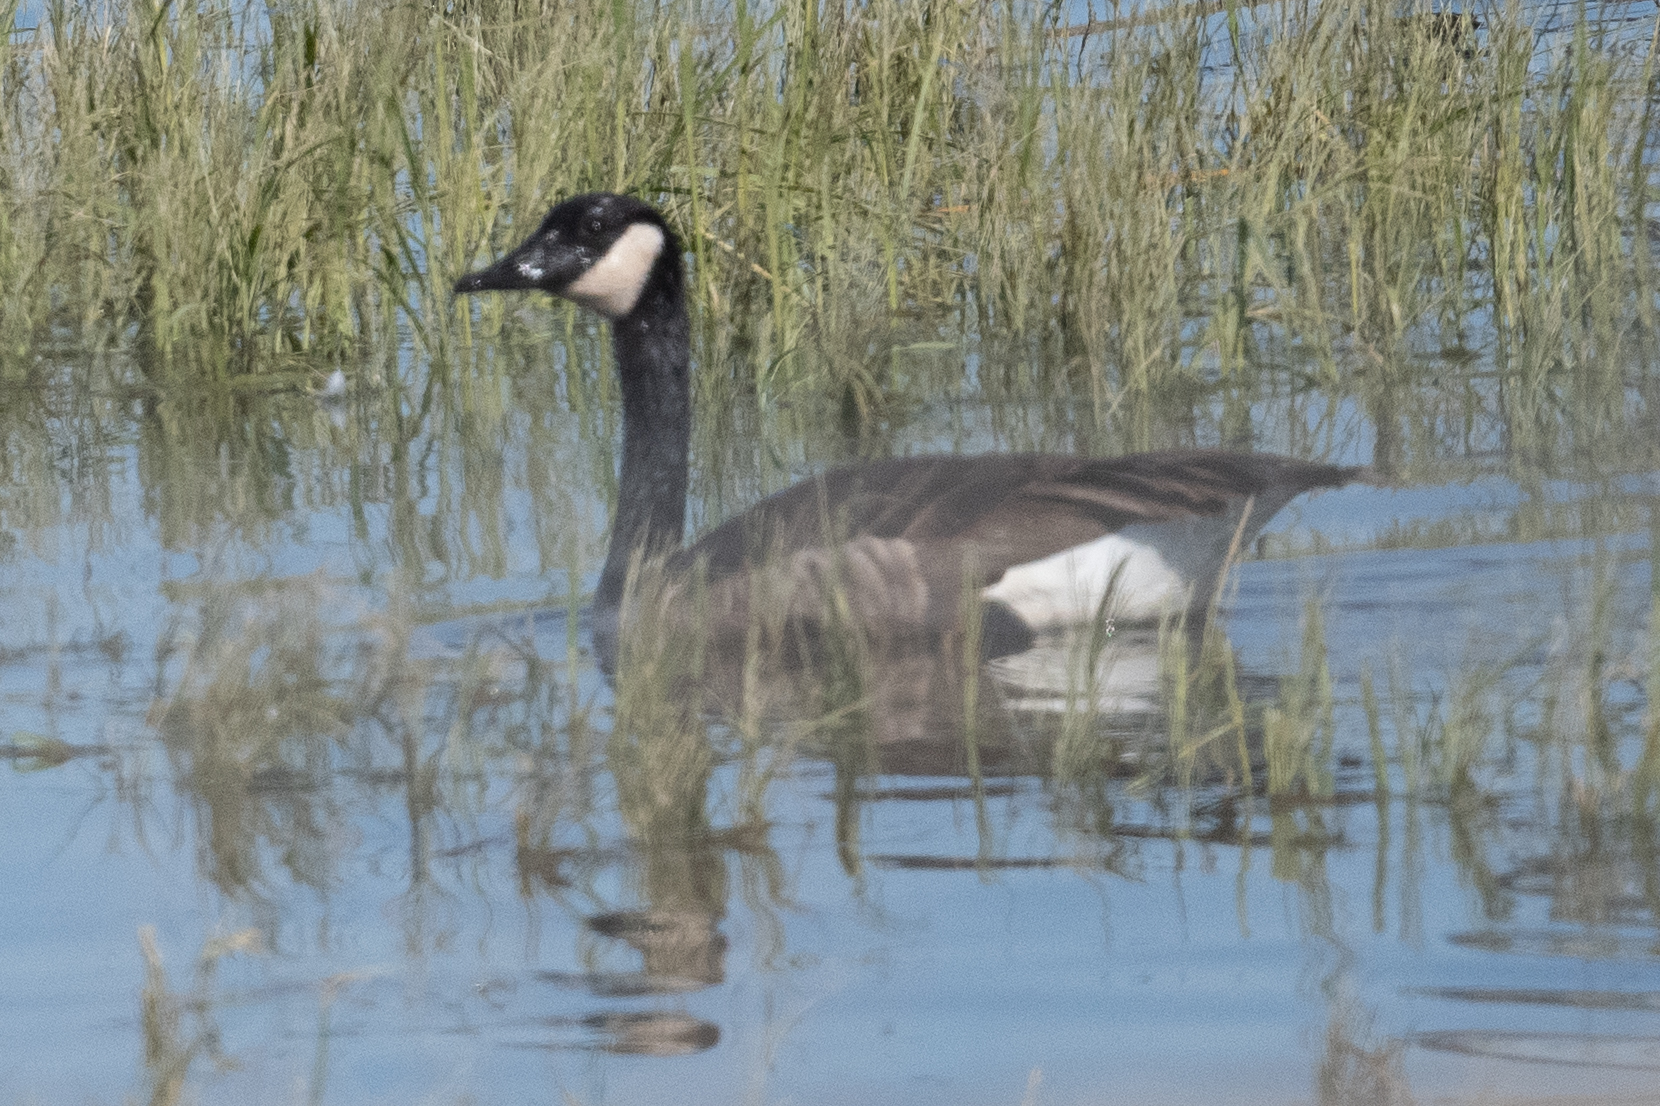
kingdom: Animalia
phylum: Chordata
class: Aves
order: Anseriformes
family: Anatidae
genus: Branta
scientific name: Branta canadensis
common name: Canada goose
